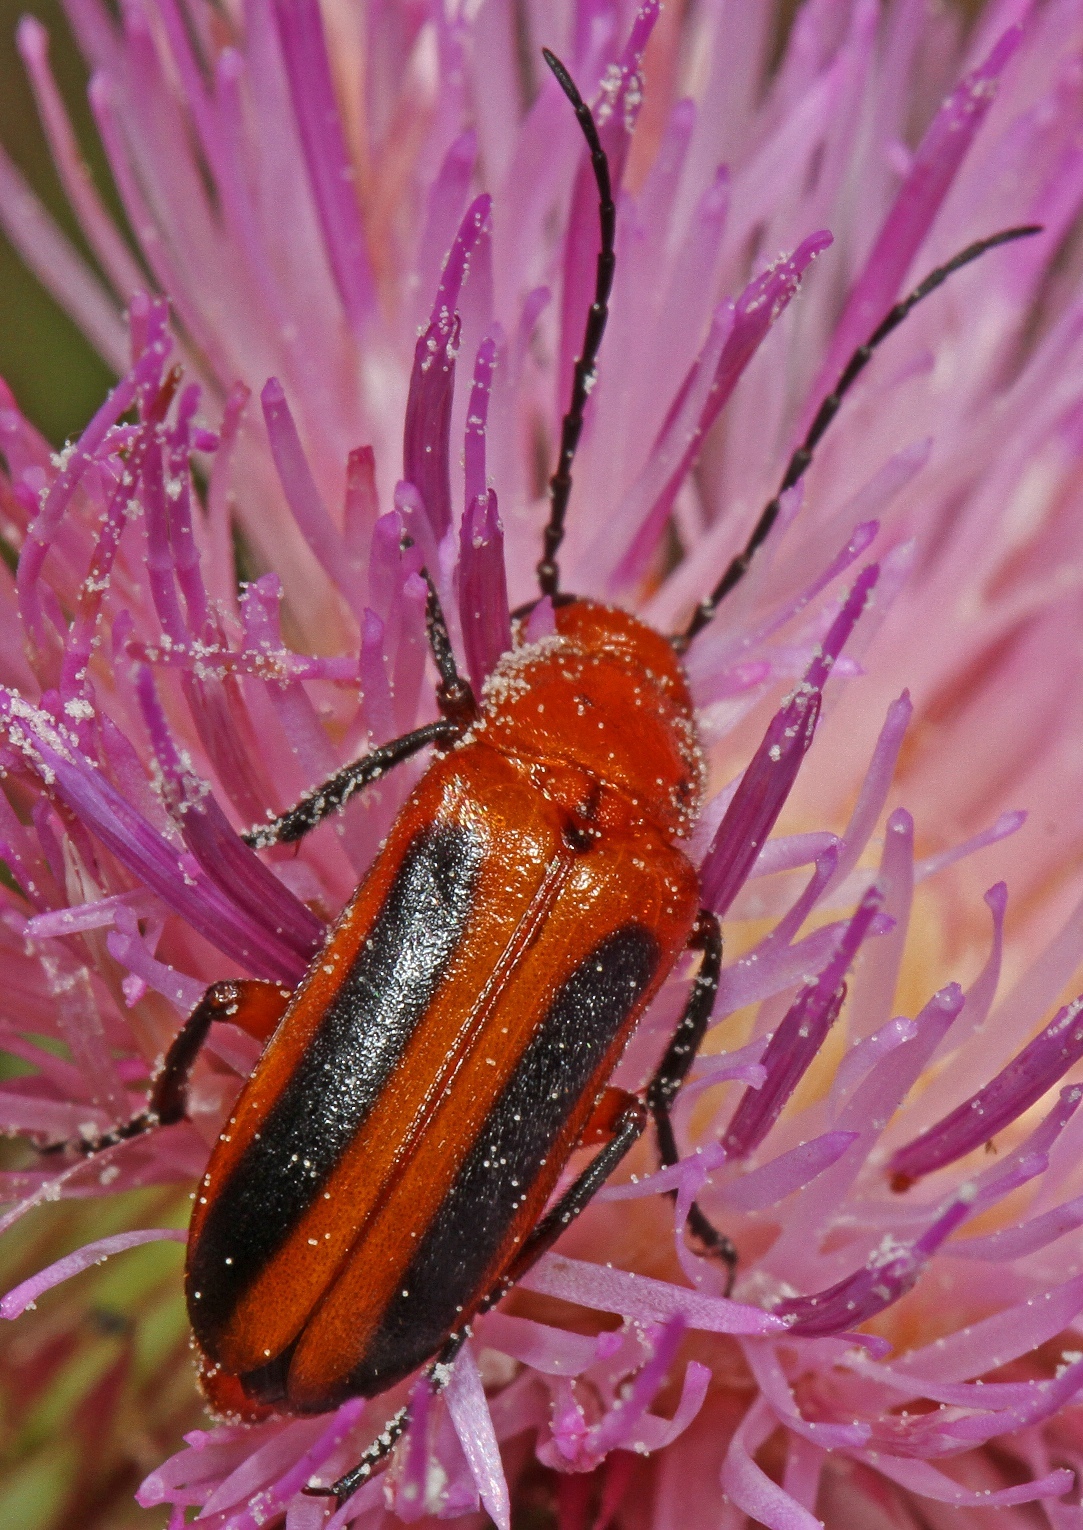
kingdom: Animalia
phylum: Arthropoda
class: Insecta
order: Coleoptera
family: Meloidae
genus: Nemognatha
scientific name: Nemognatha piazata
